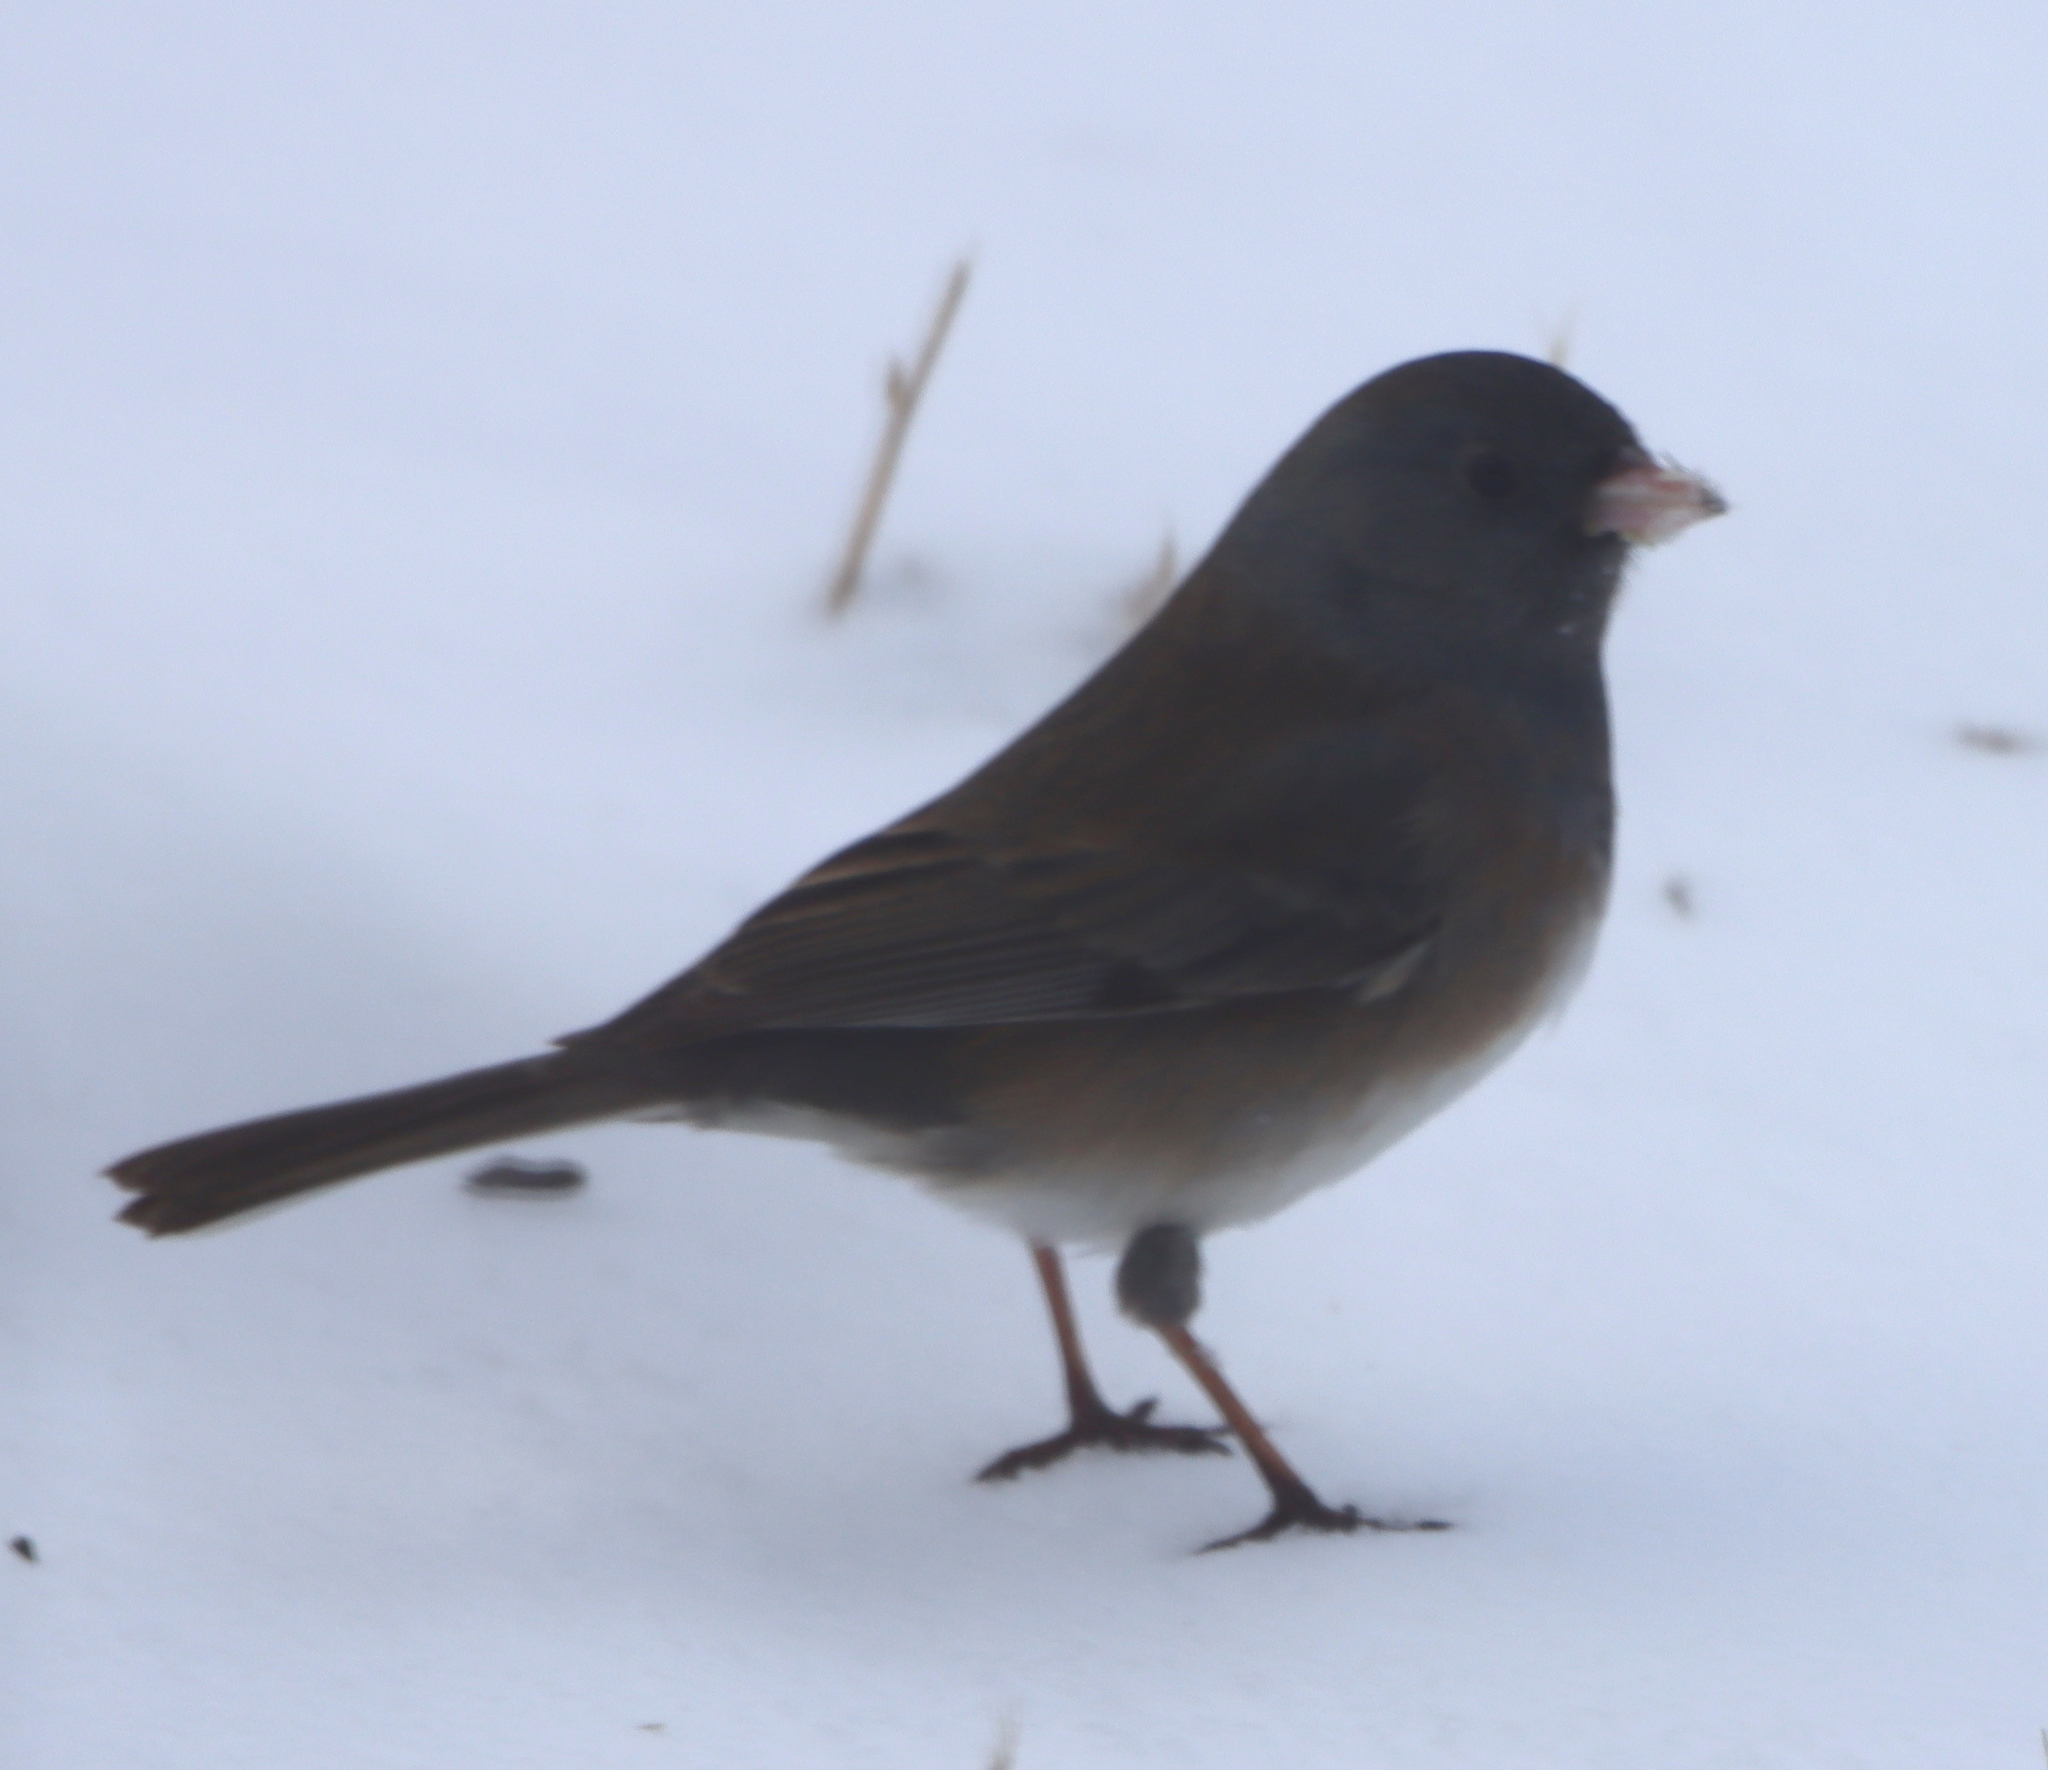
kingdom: Animalia
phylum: Chordata
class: Aves
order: Passeriformes
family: Passerellidae
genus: Junco
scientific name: Junco hyemalis
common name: Dark-eyed junco
